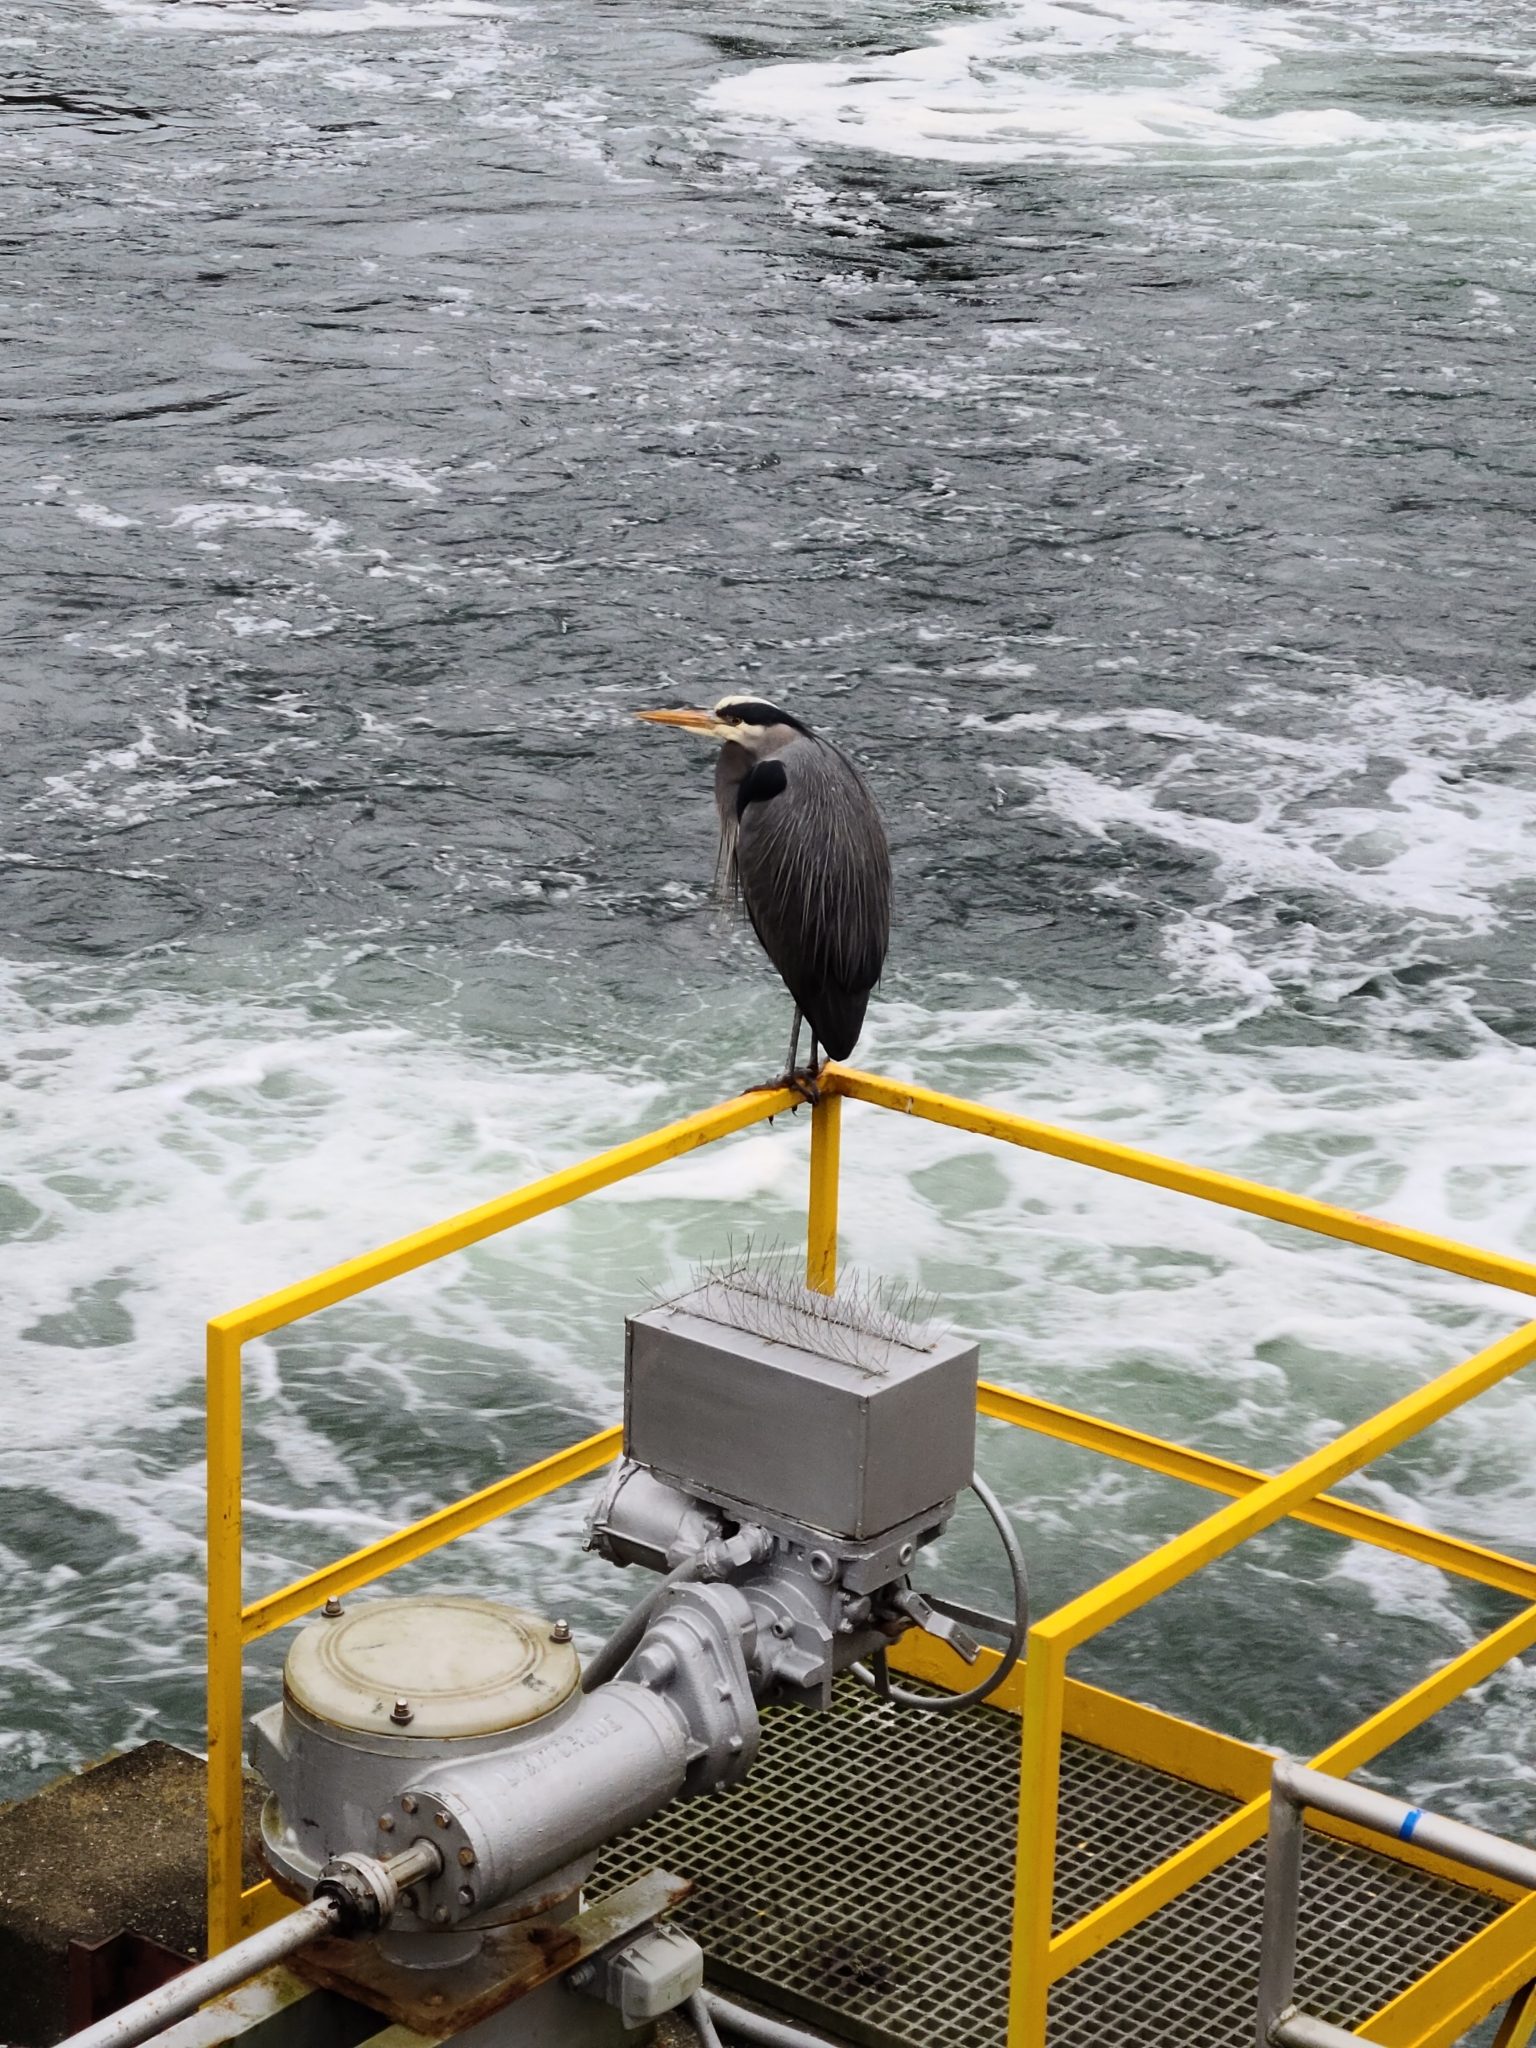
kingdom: Animalia
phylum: Chordata
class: Aves
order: Pelecaniformes
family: Ardeidae
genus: Ardea
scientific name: Ardea herodias
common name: Great blue heron
